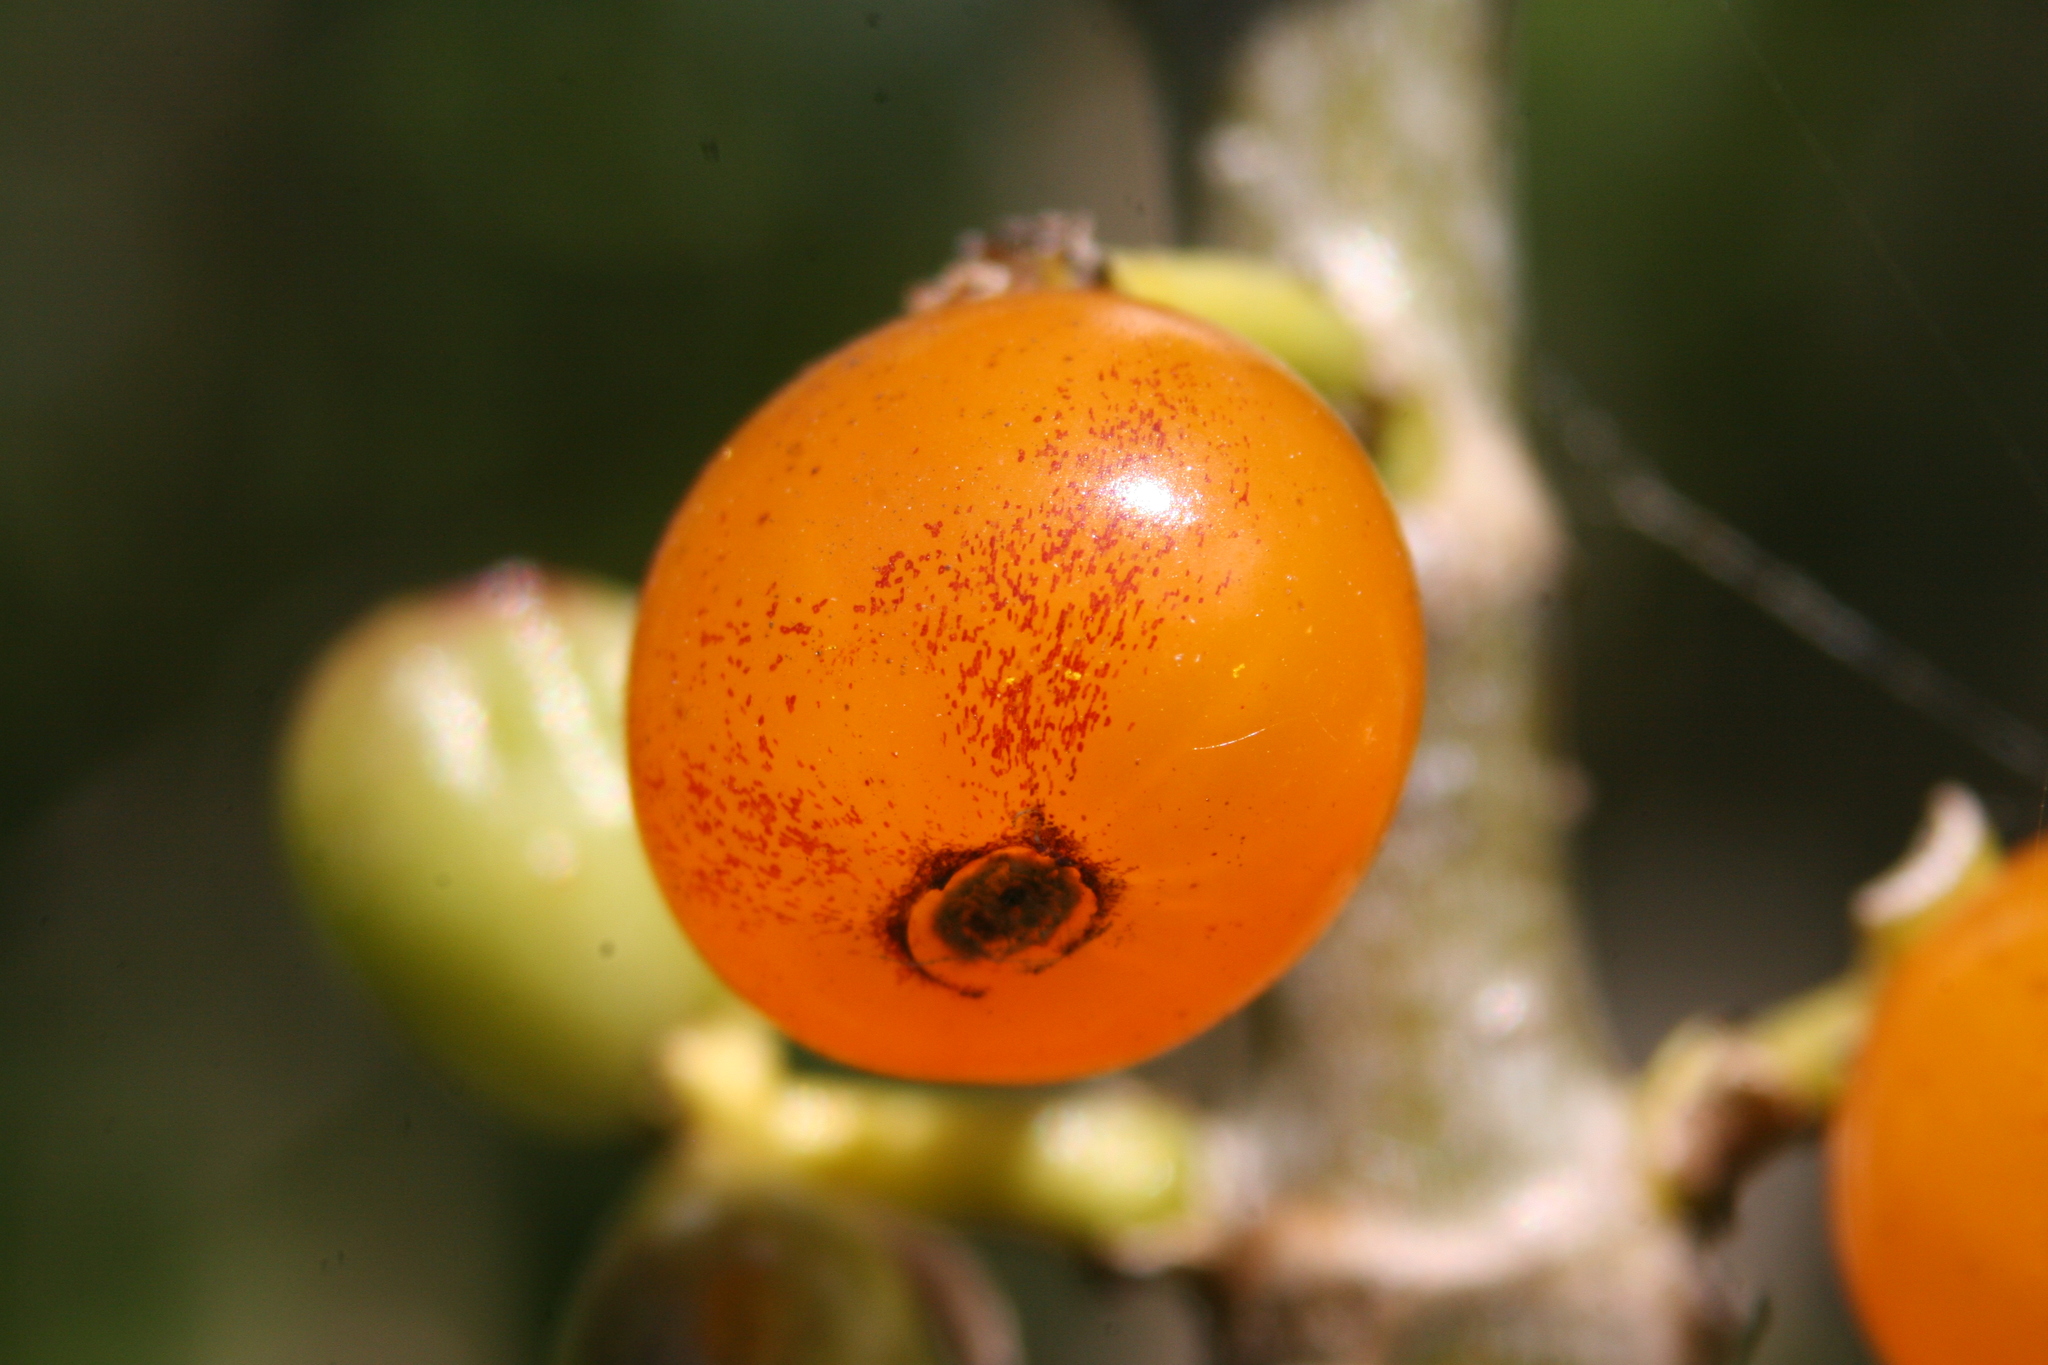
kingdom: Plantae
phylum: Tracheophyta
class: Magnoliopsida
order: Gentianales
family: Rubiaceae
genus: Coprosma
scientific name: Coprosma repens
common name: Tree bedstraw
